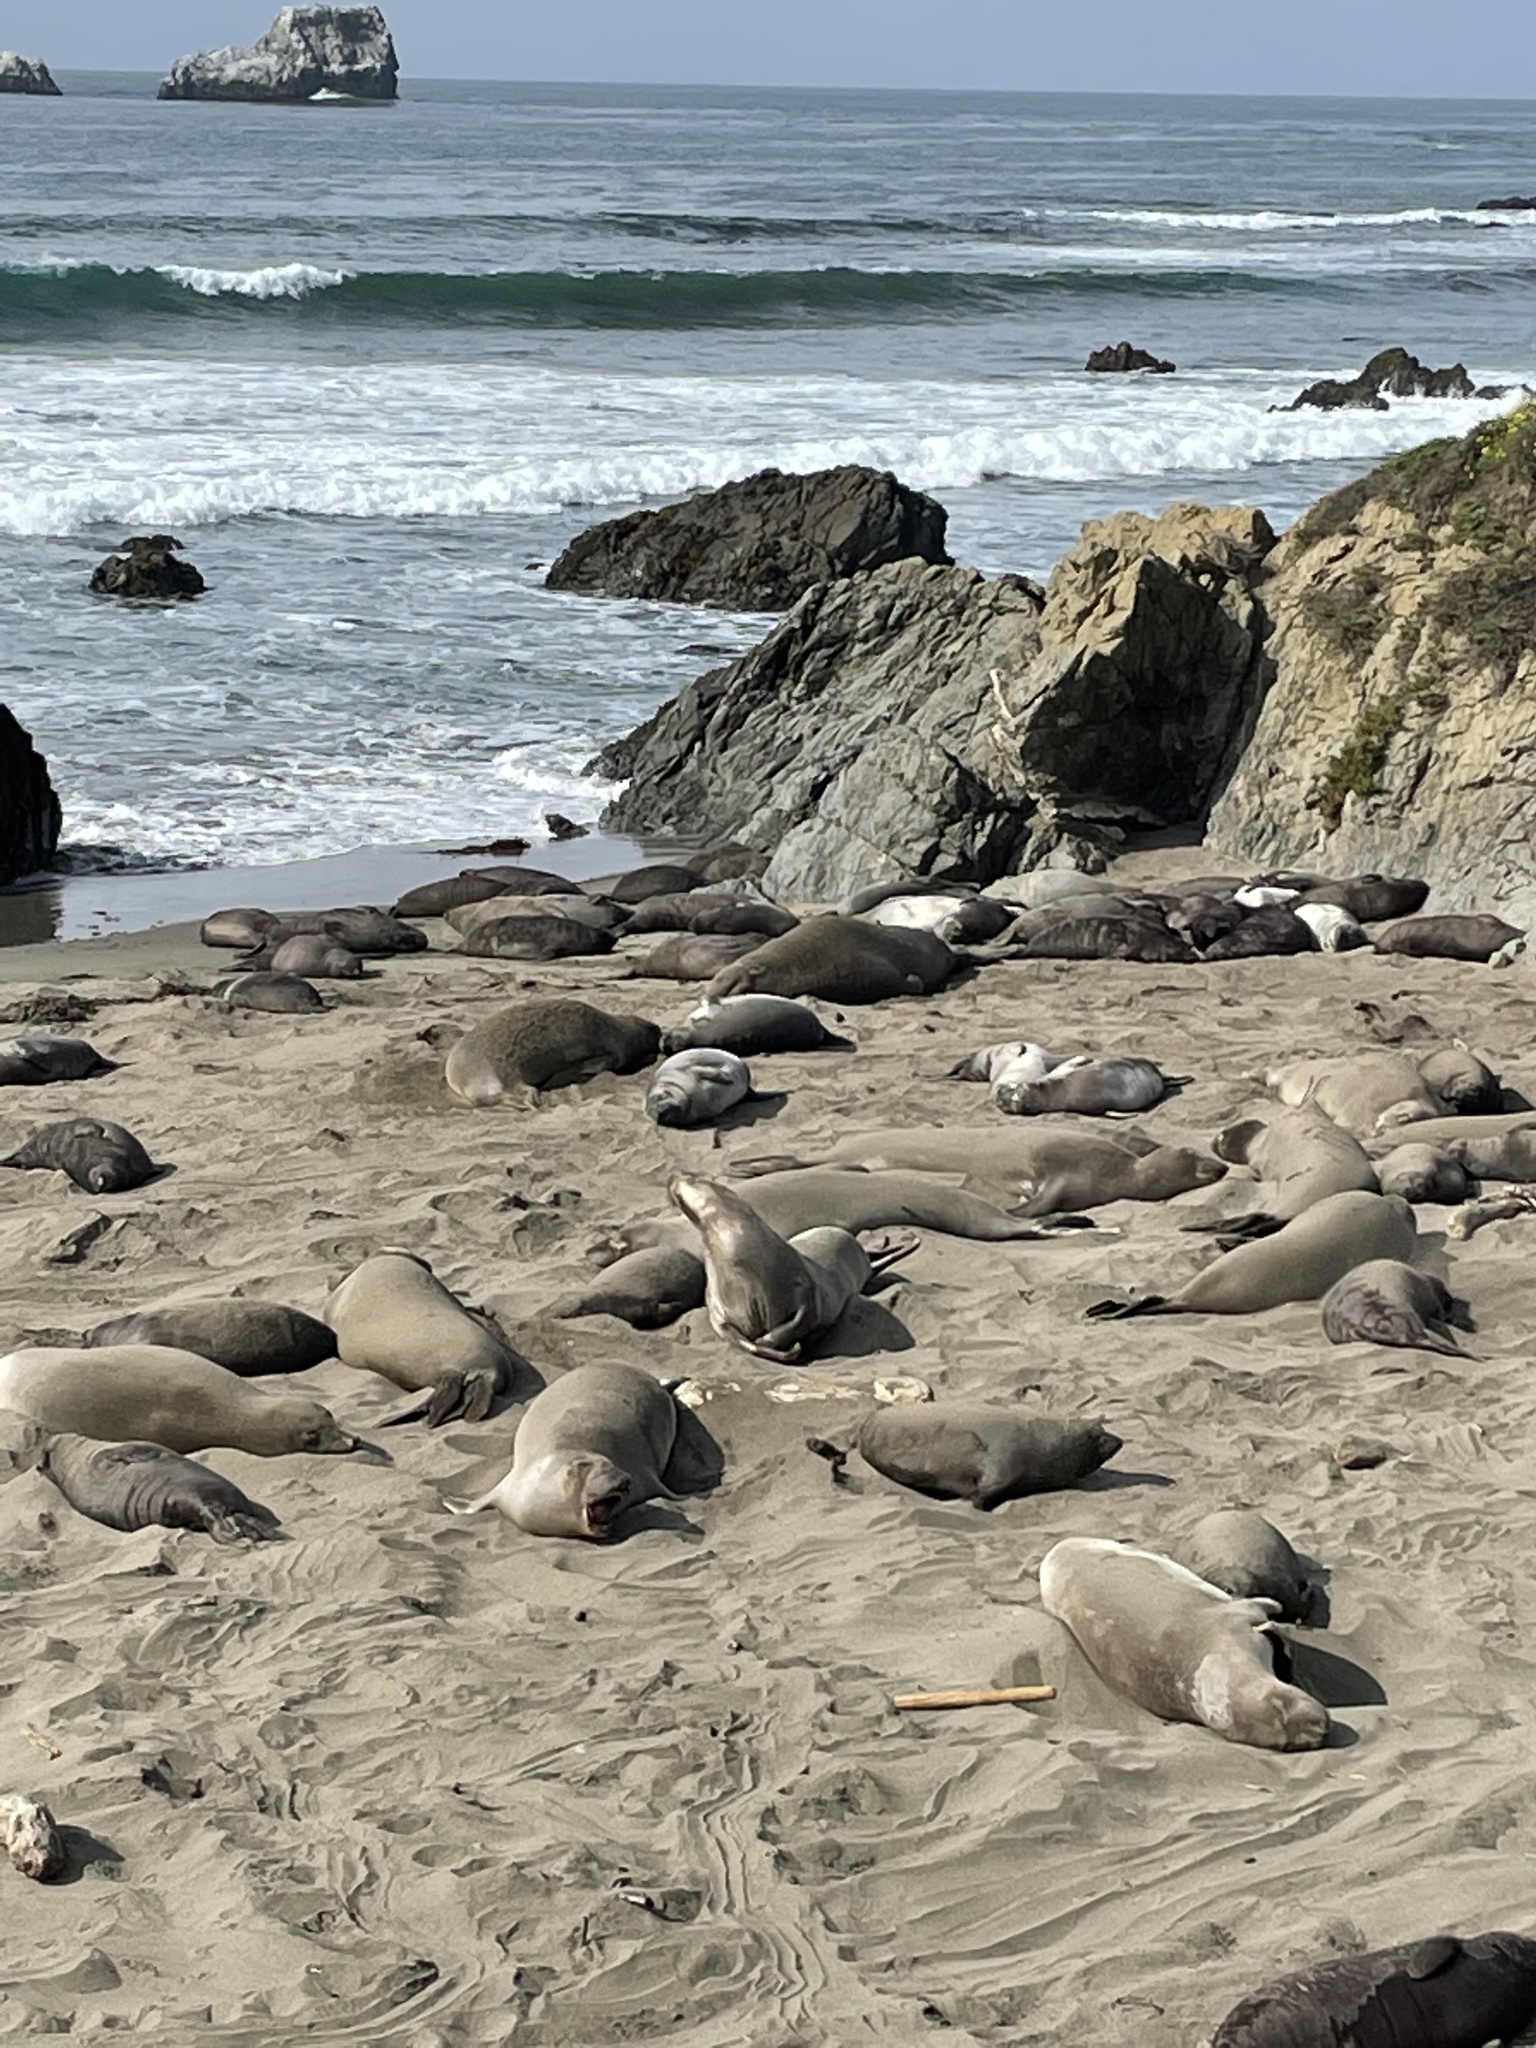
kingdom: Animalia
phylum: Chordata
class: Mammalia
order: Carnivora
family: Phocidae
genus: Mirounga
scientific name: Mirounga angustirostris
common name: Northern elephant seal
